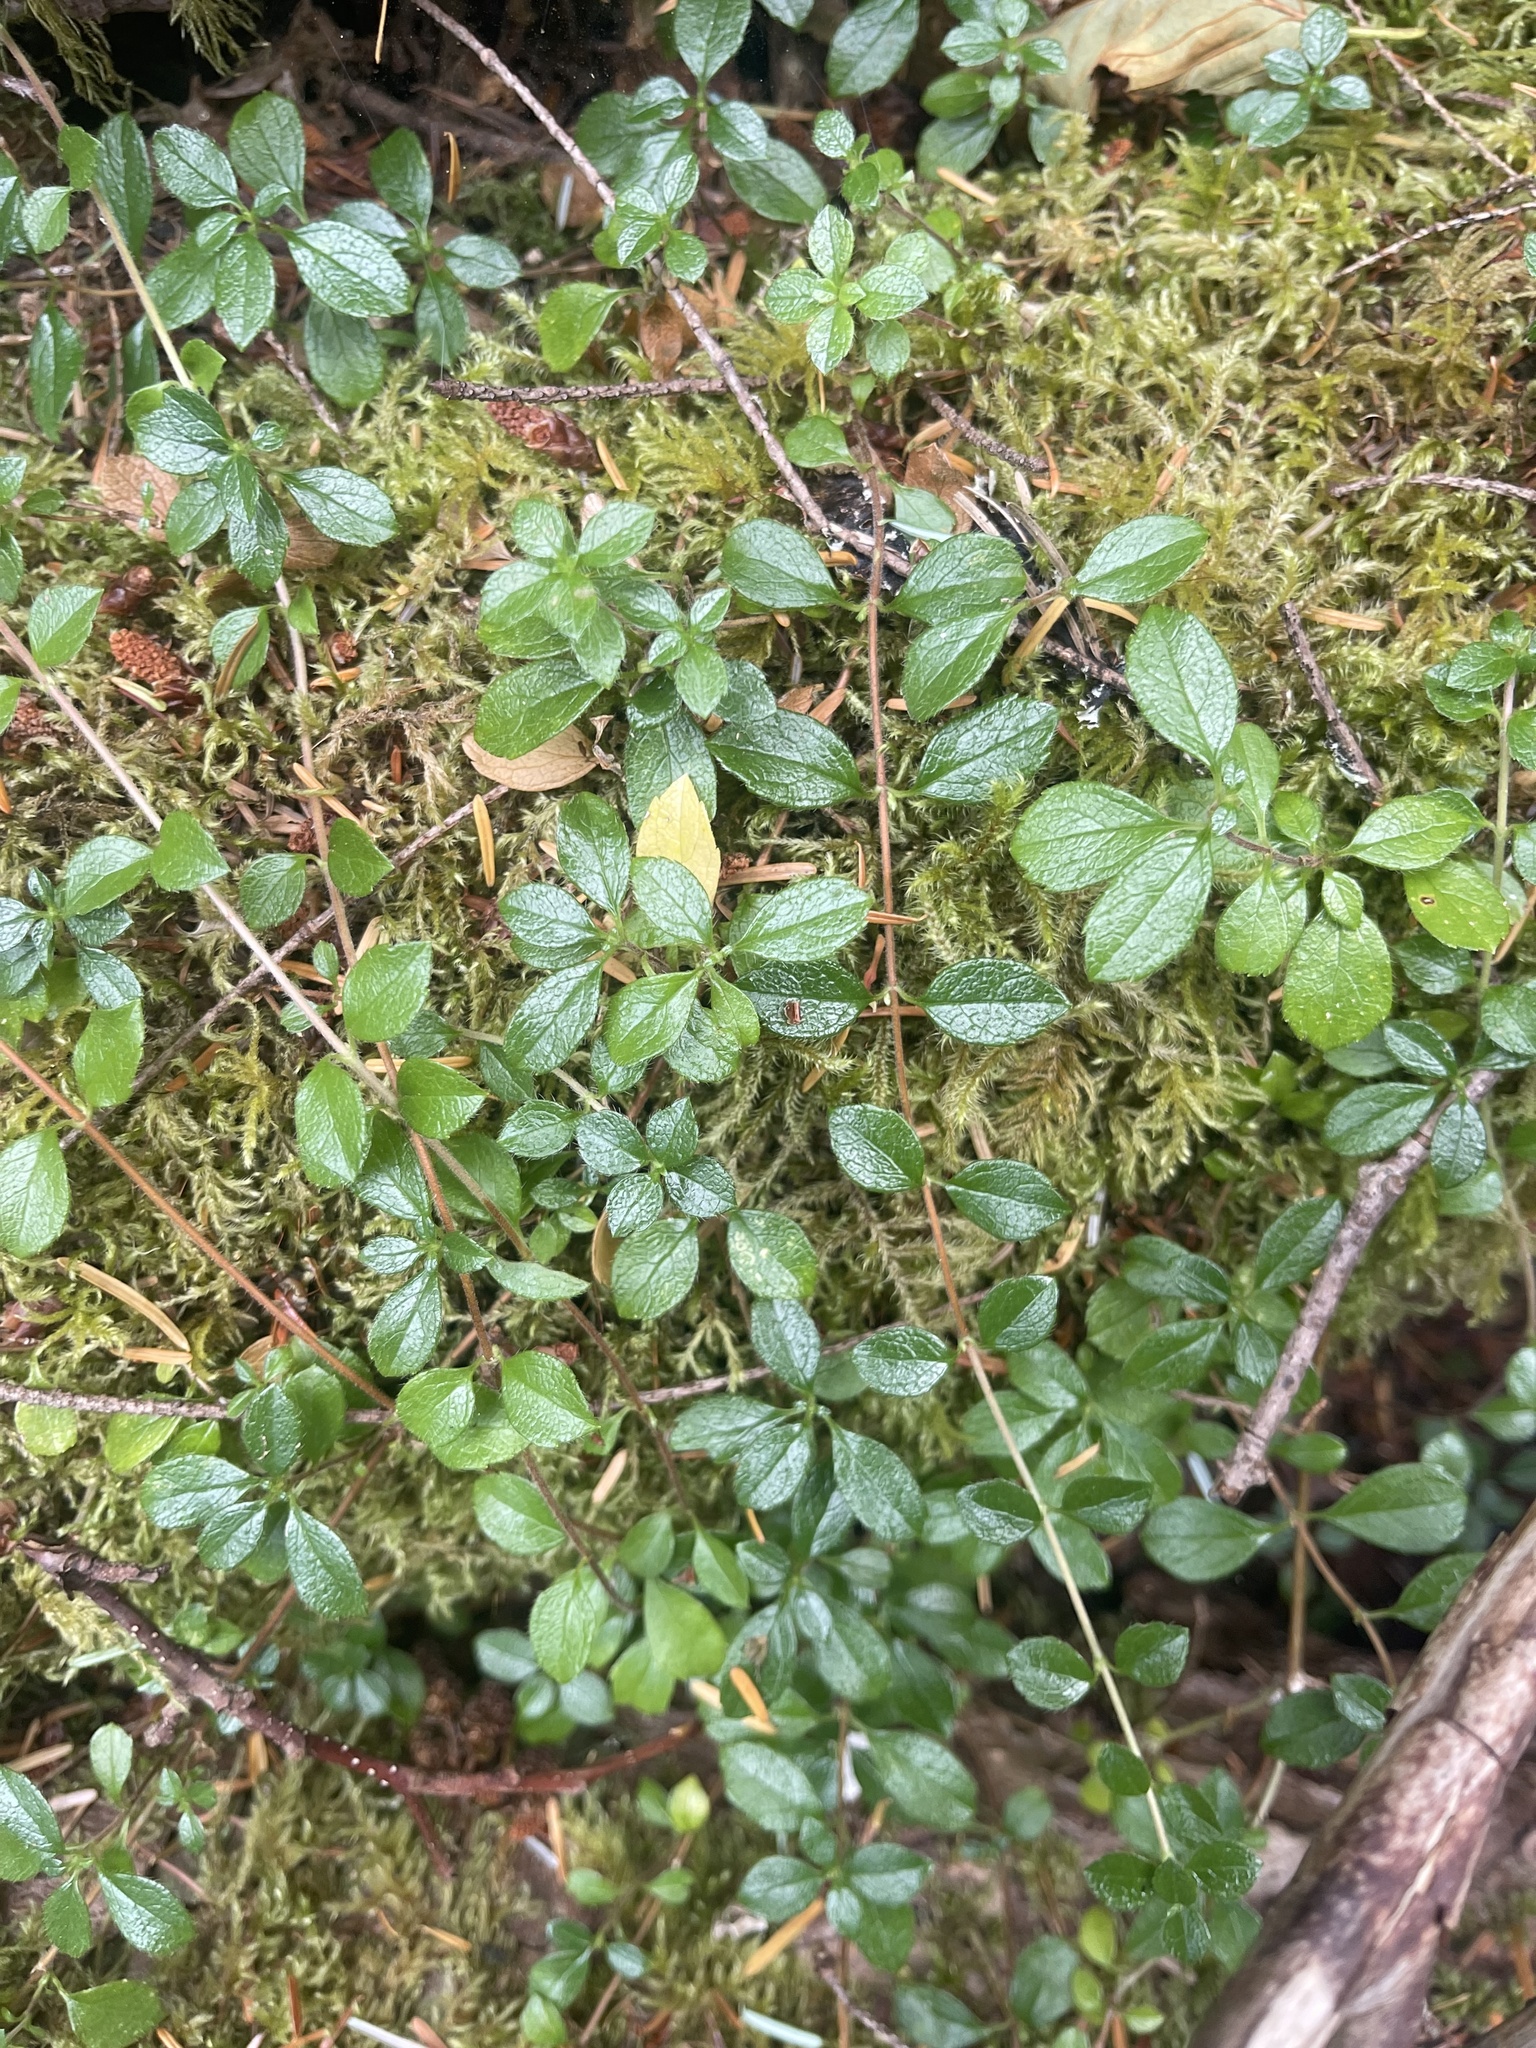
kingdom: Plantae
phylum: Tracheophyta
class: Magnoliopsida
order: Dipsacales
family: Caprifoliaceae
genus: Linnaea
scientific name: Linnaea borealis
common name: Twinflower
